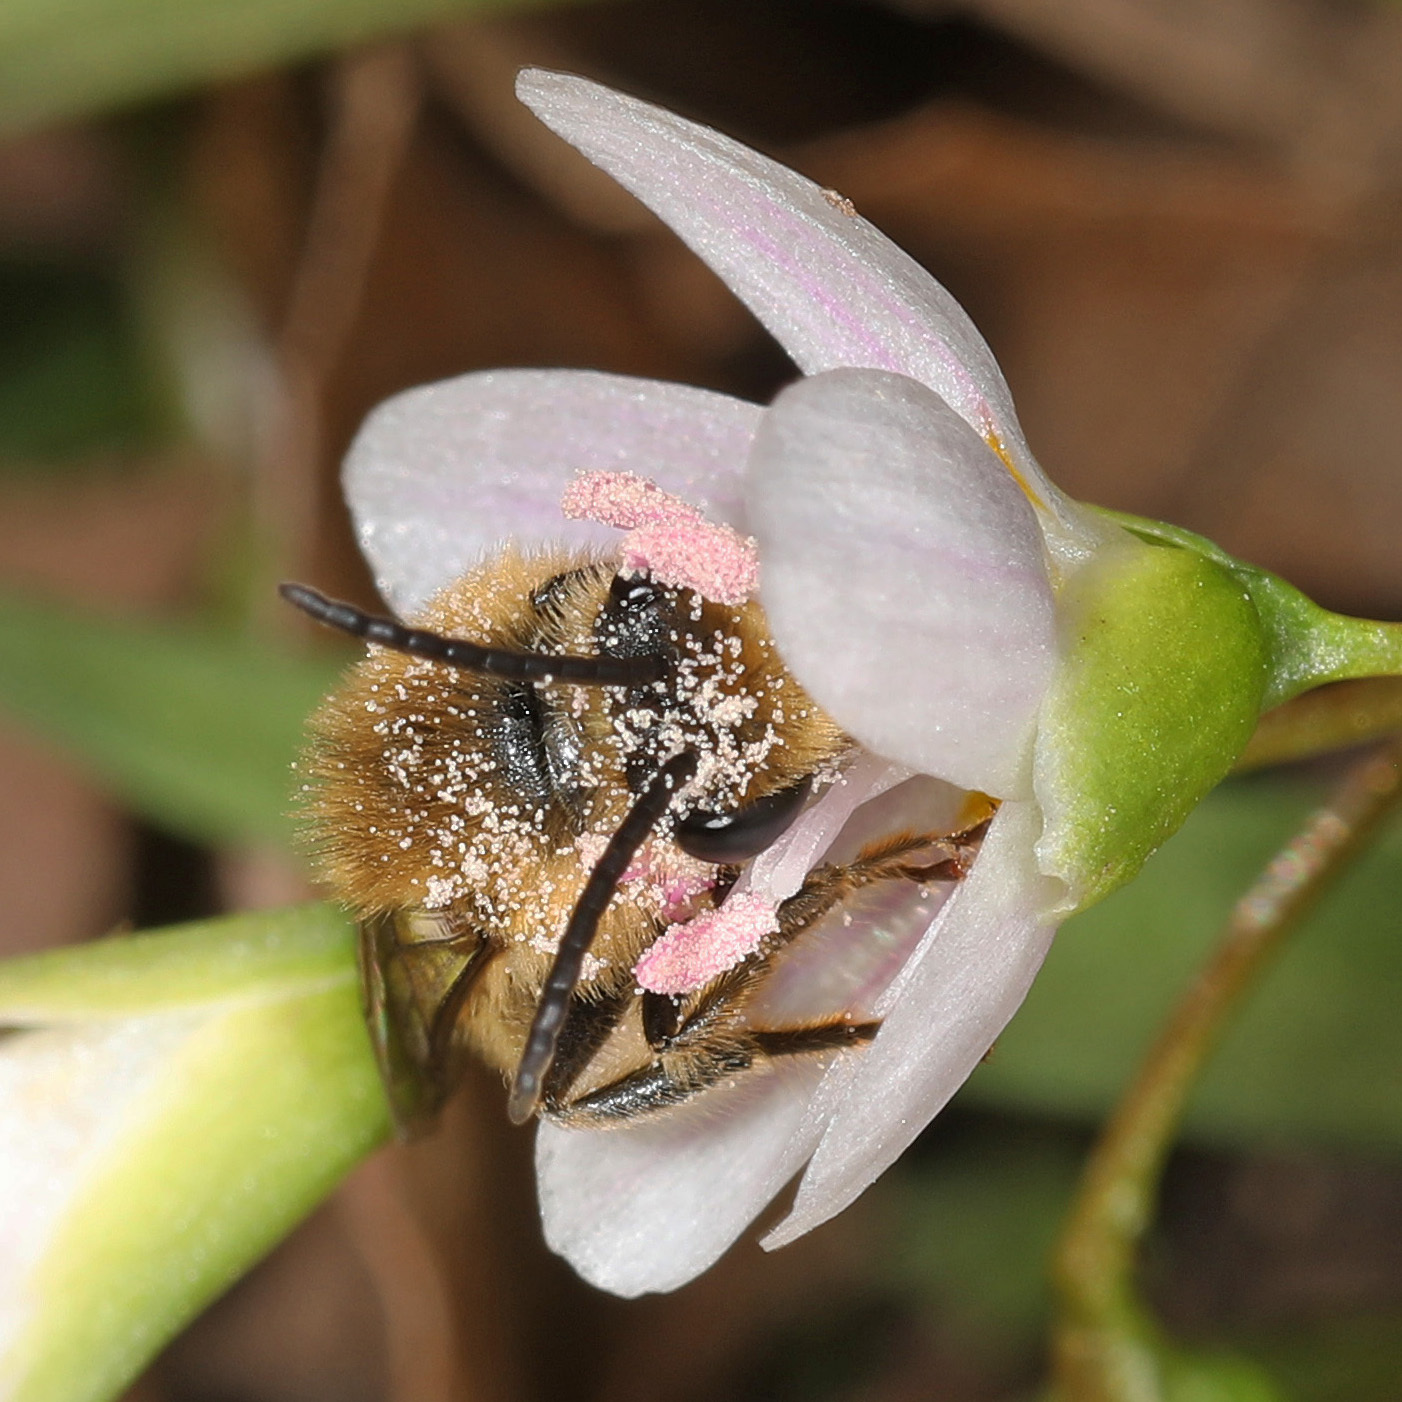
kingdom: Animalia
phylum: Arthropoda
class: Insecta
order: Hymenoptera
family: Colletidae
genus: Colletes
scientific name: Colletes inaequalis
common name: Unequal cellophane bee
